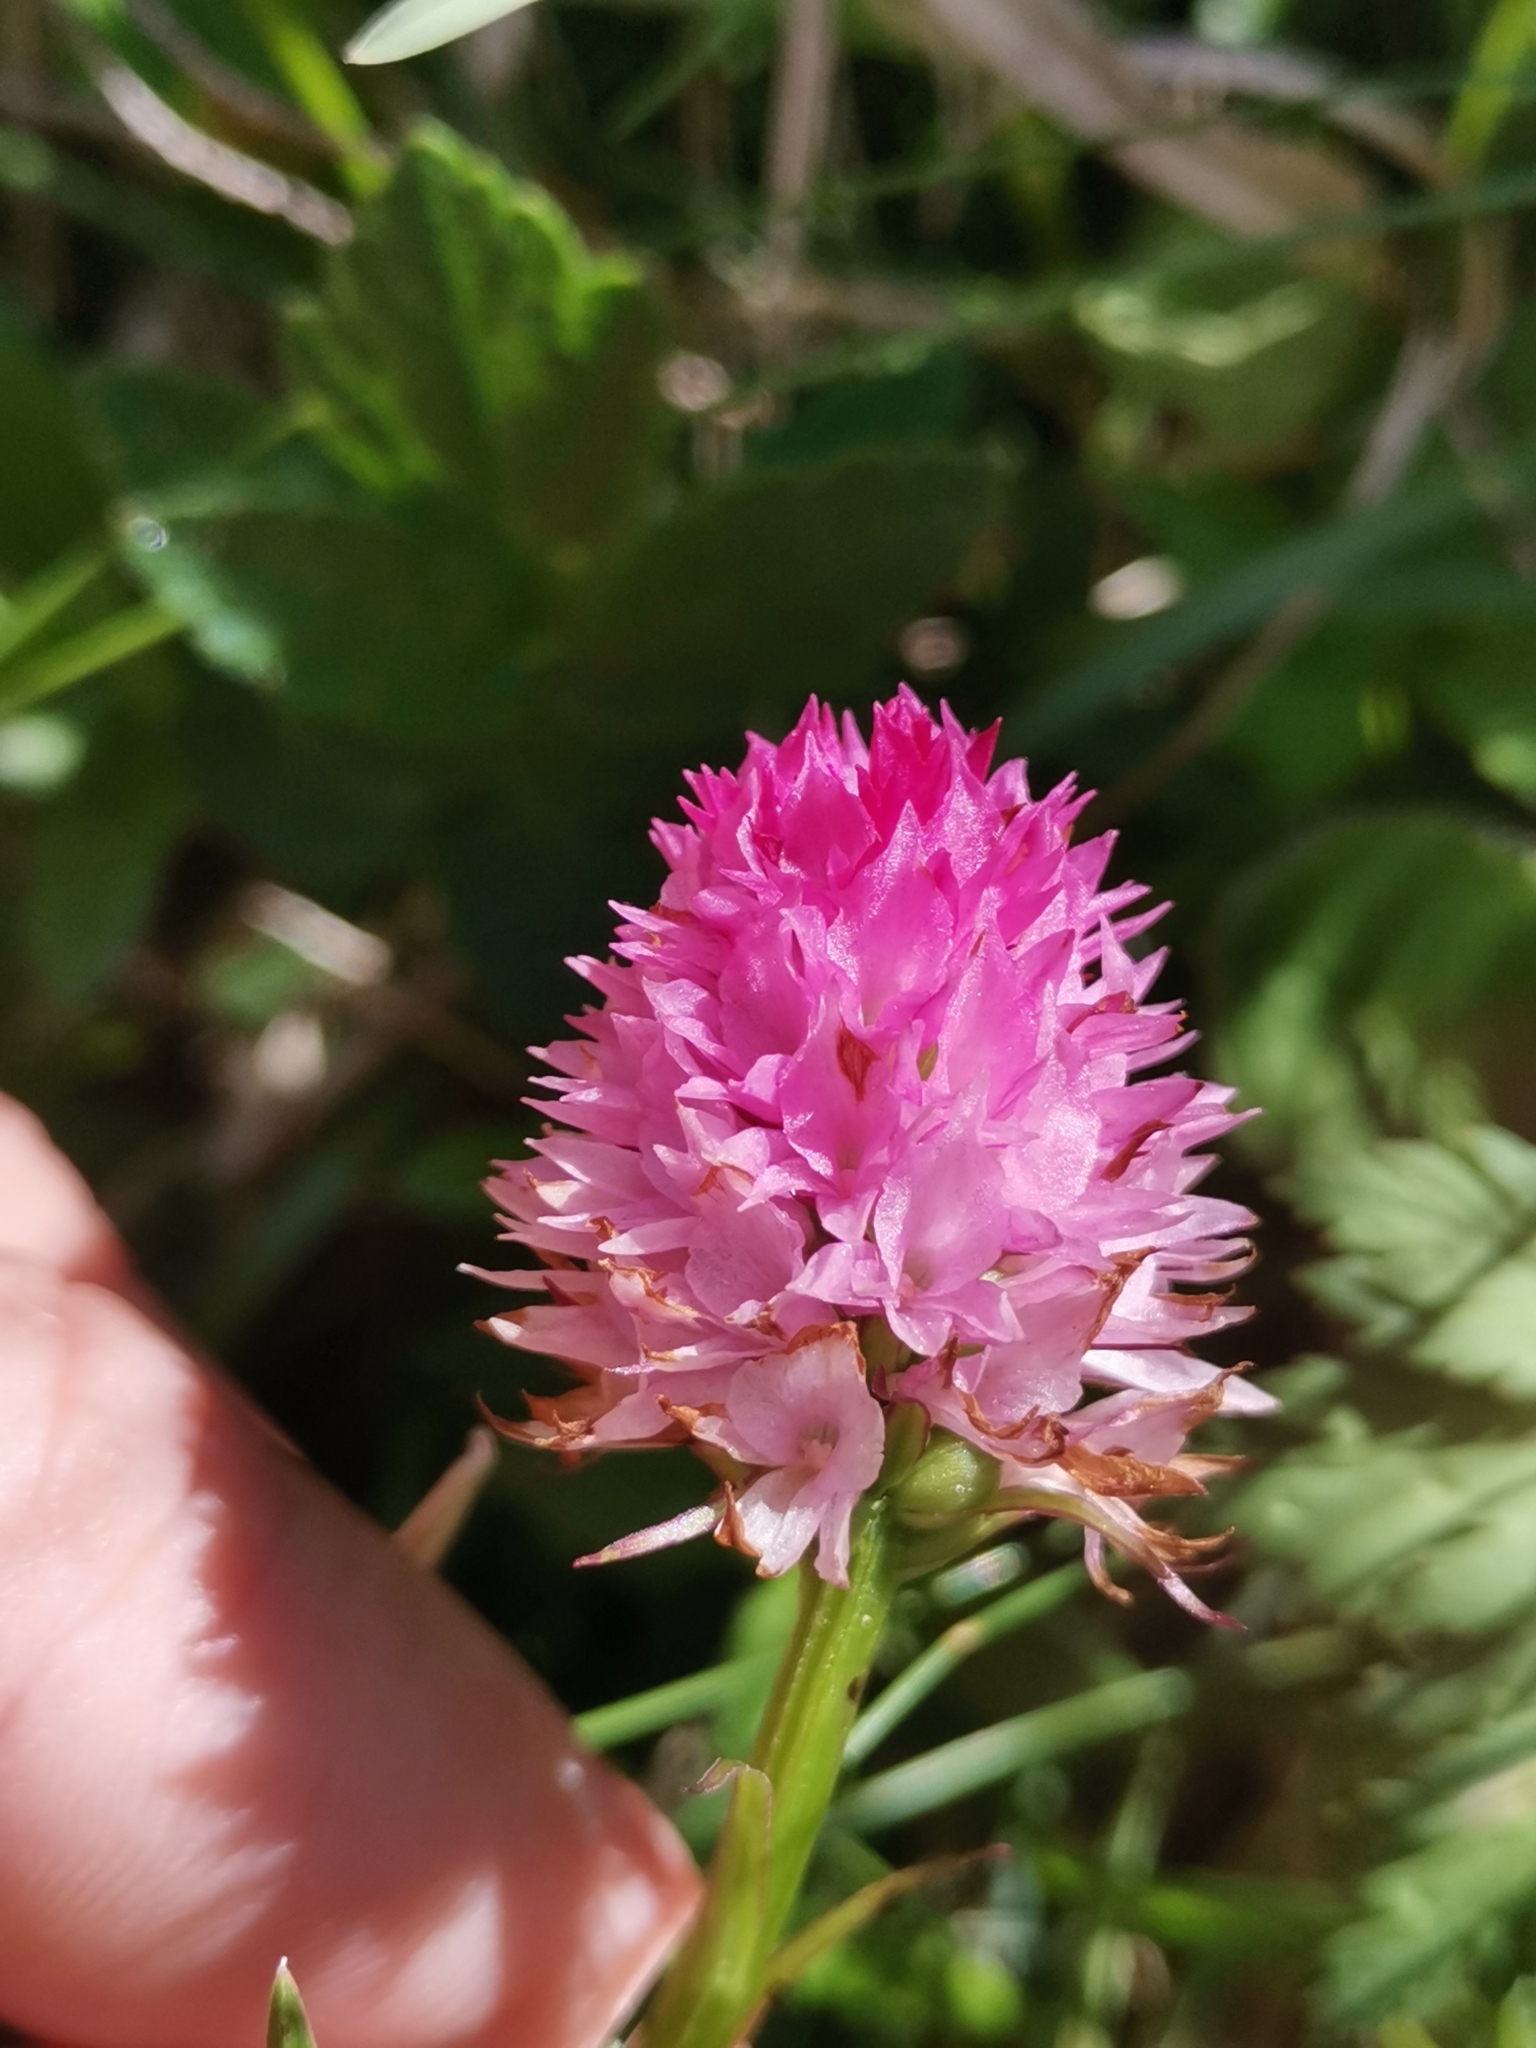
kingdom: Plantae
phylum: Tracheophyta
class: Liliopsida
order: Asparagales
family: Orchidaceae
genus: Gymnadenia
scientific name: Gymnadenia lithopolitanica
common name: Austrian gymnadenia
